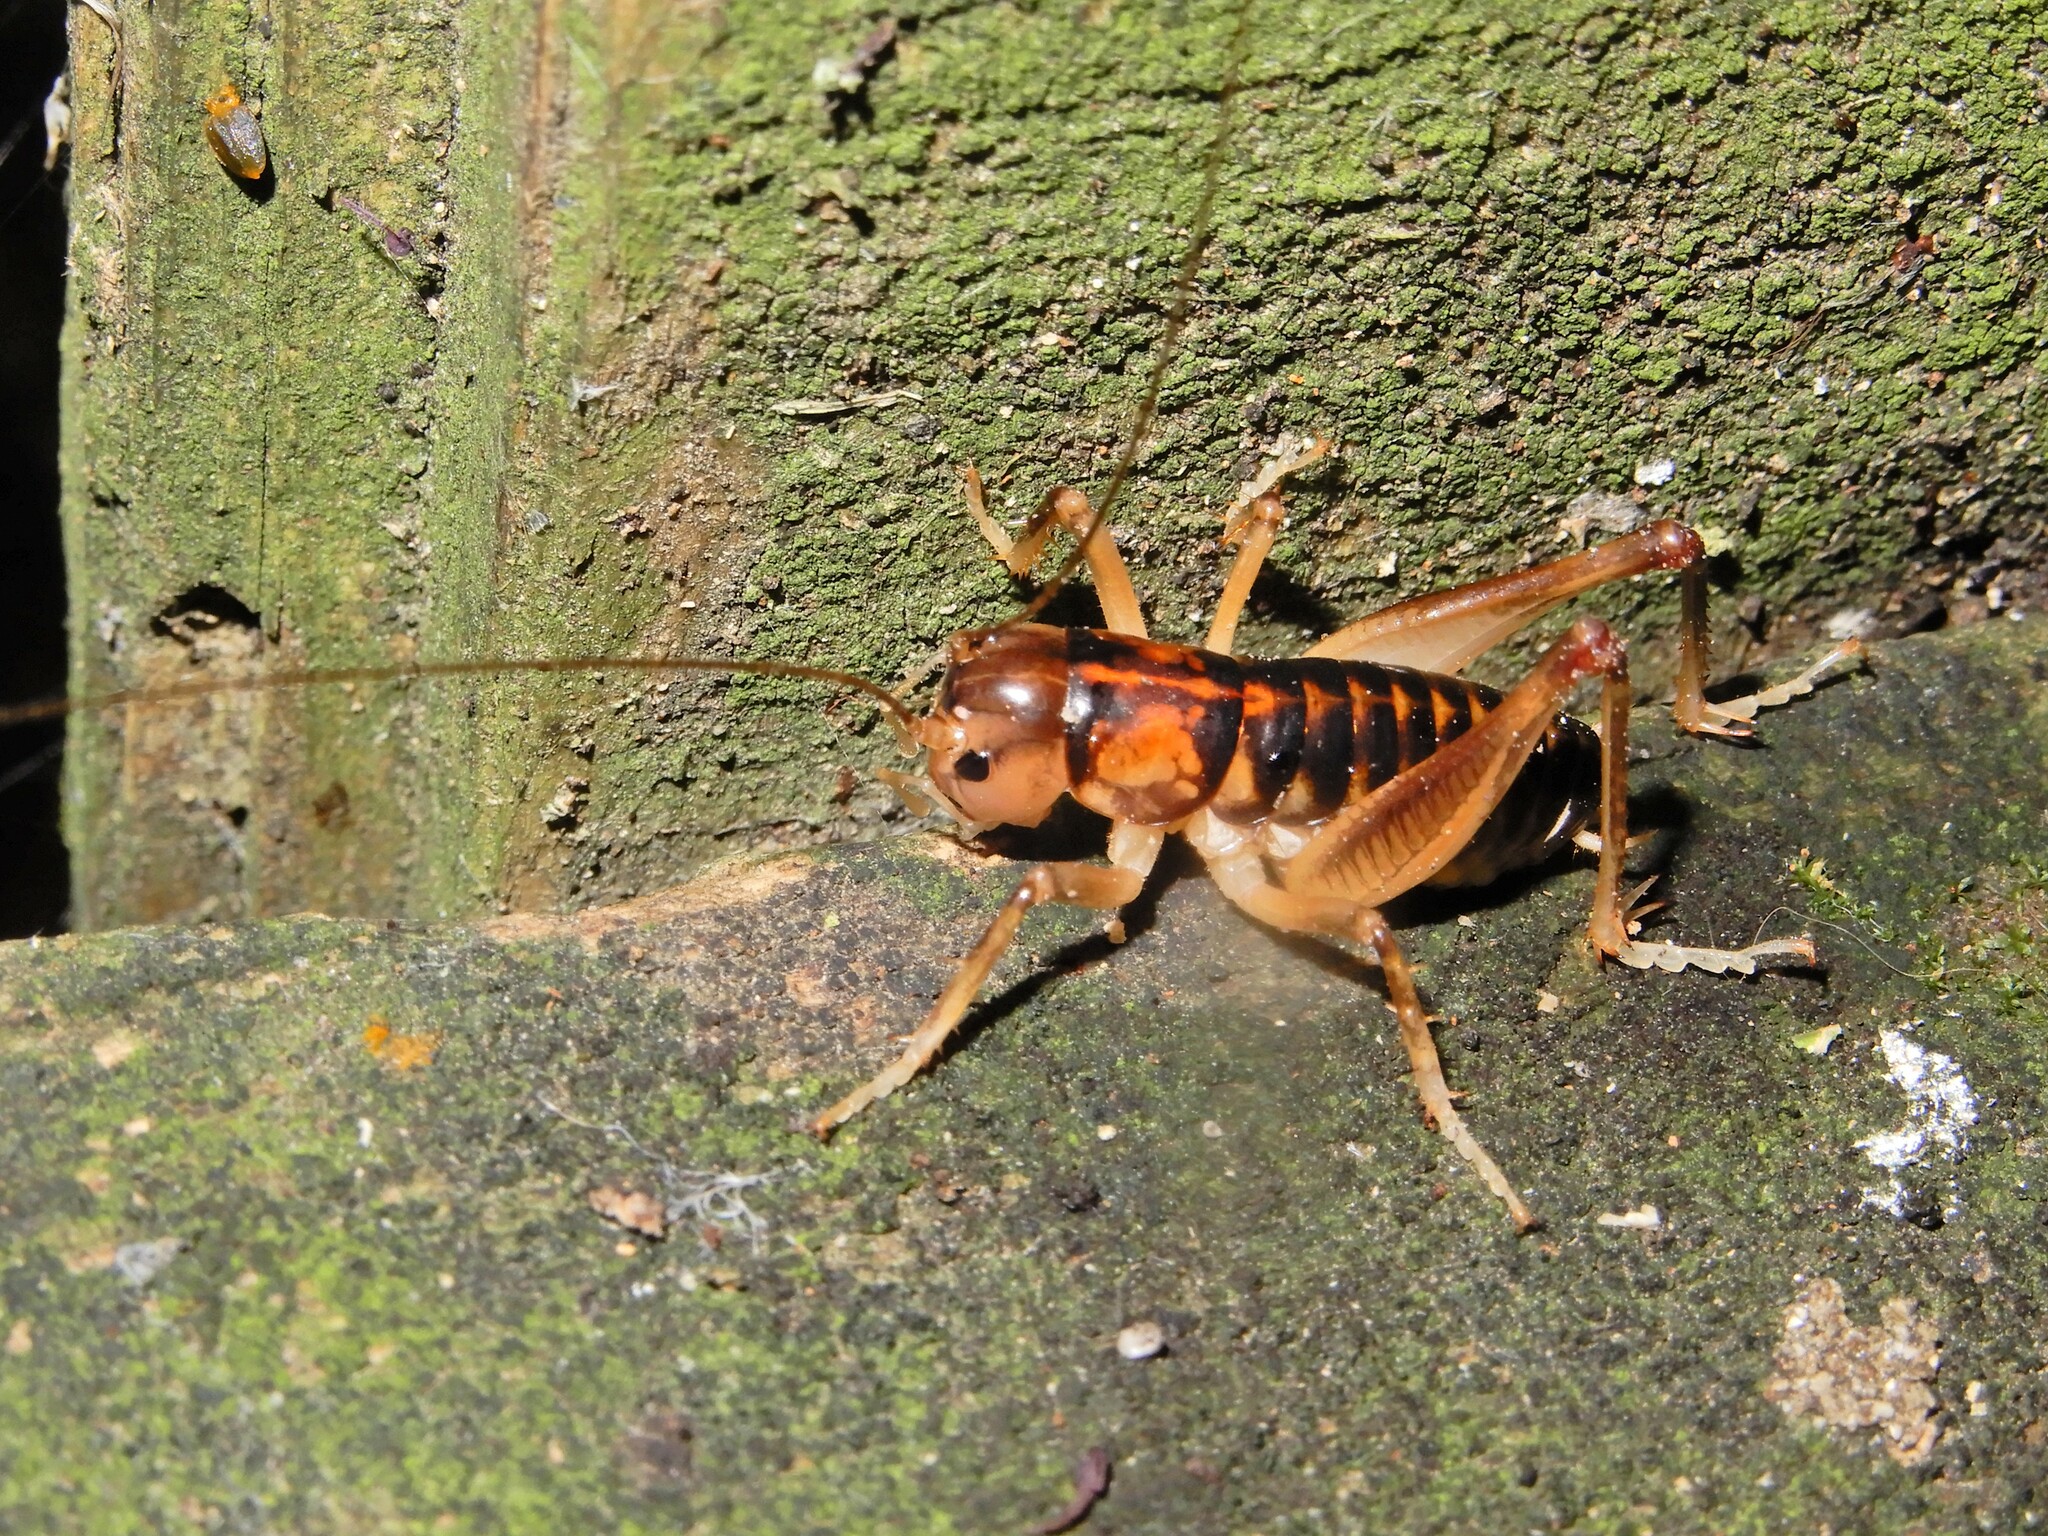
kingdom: Animalia
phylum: Arthropoda
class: Insecta
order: Orthoptera
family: Anostostomatidae
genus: Hemiandrus
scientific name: Hemiandrus pallitarsis
